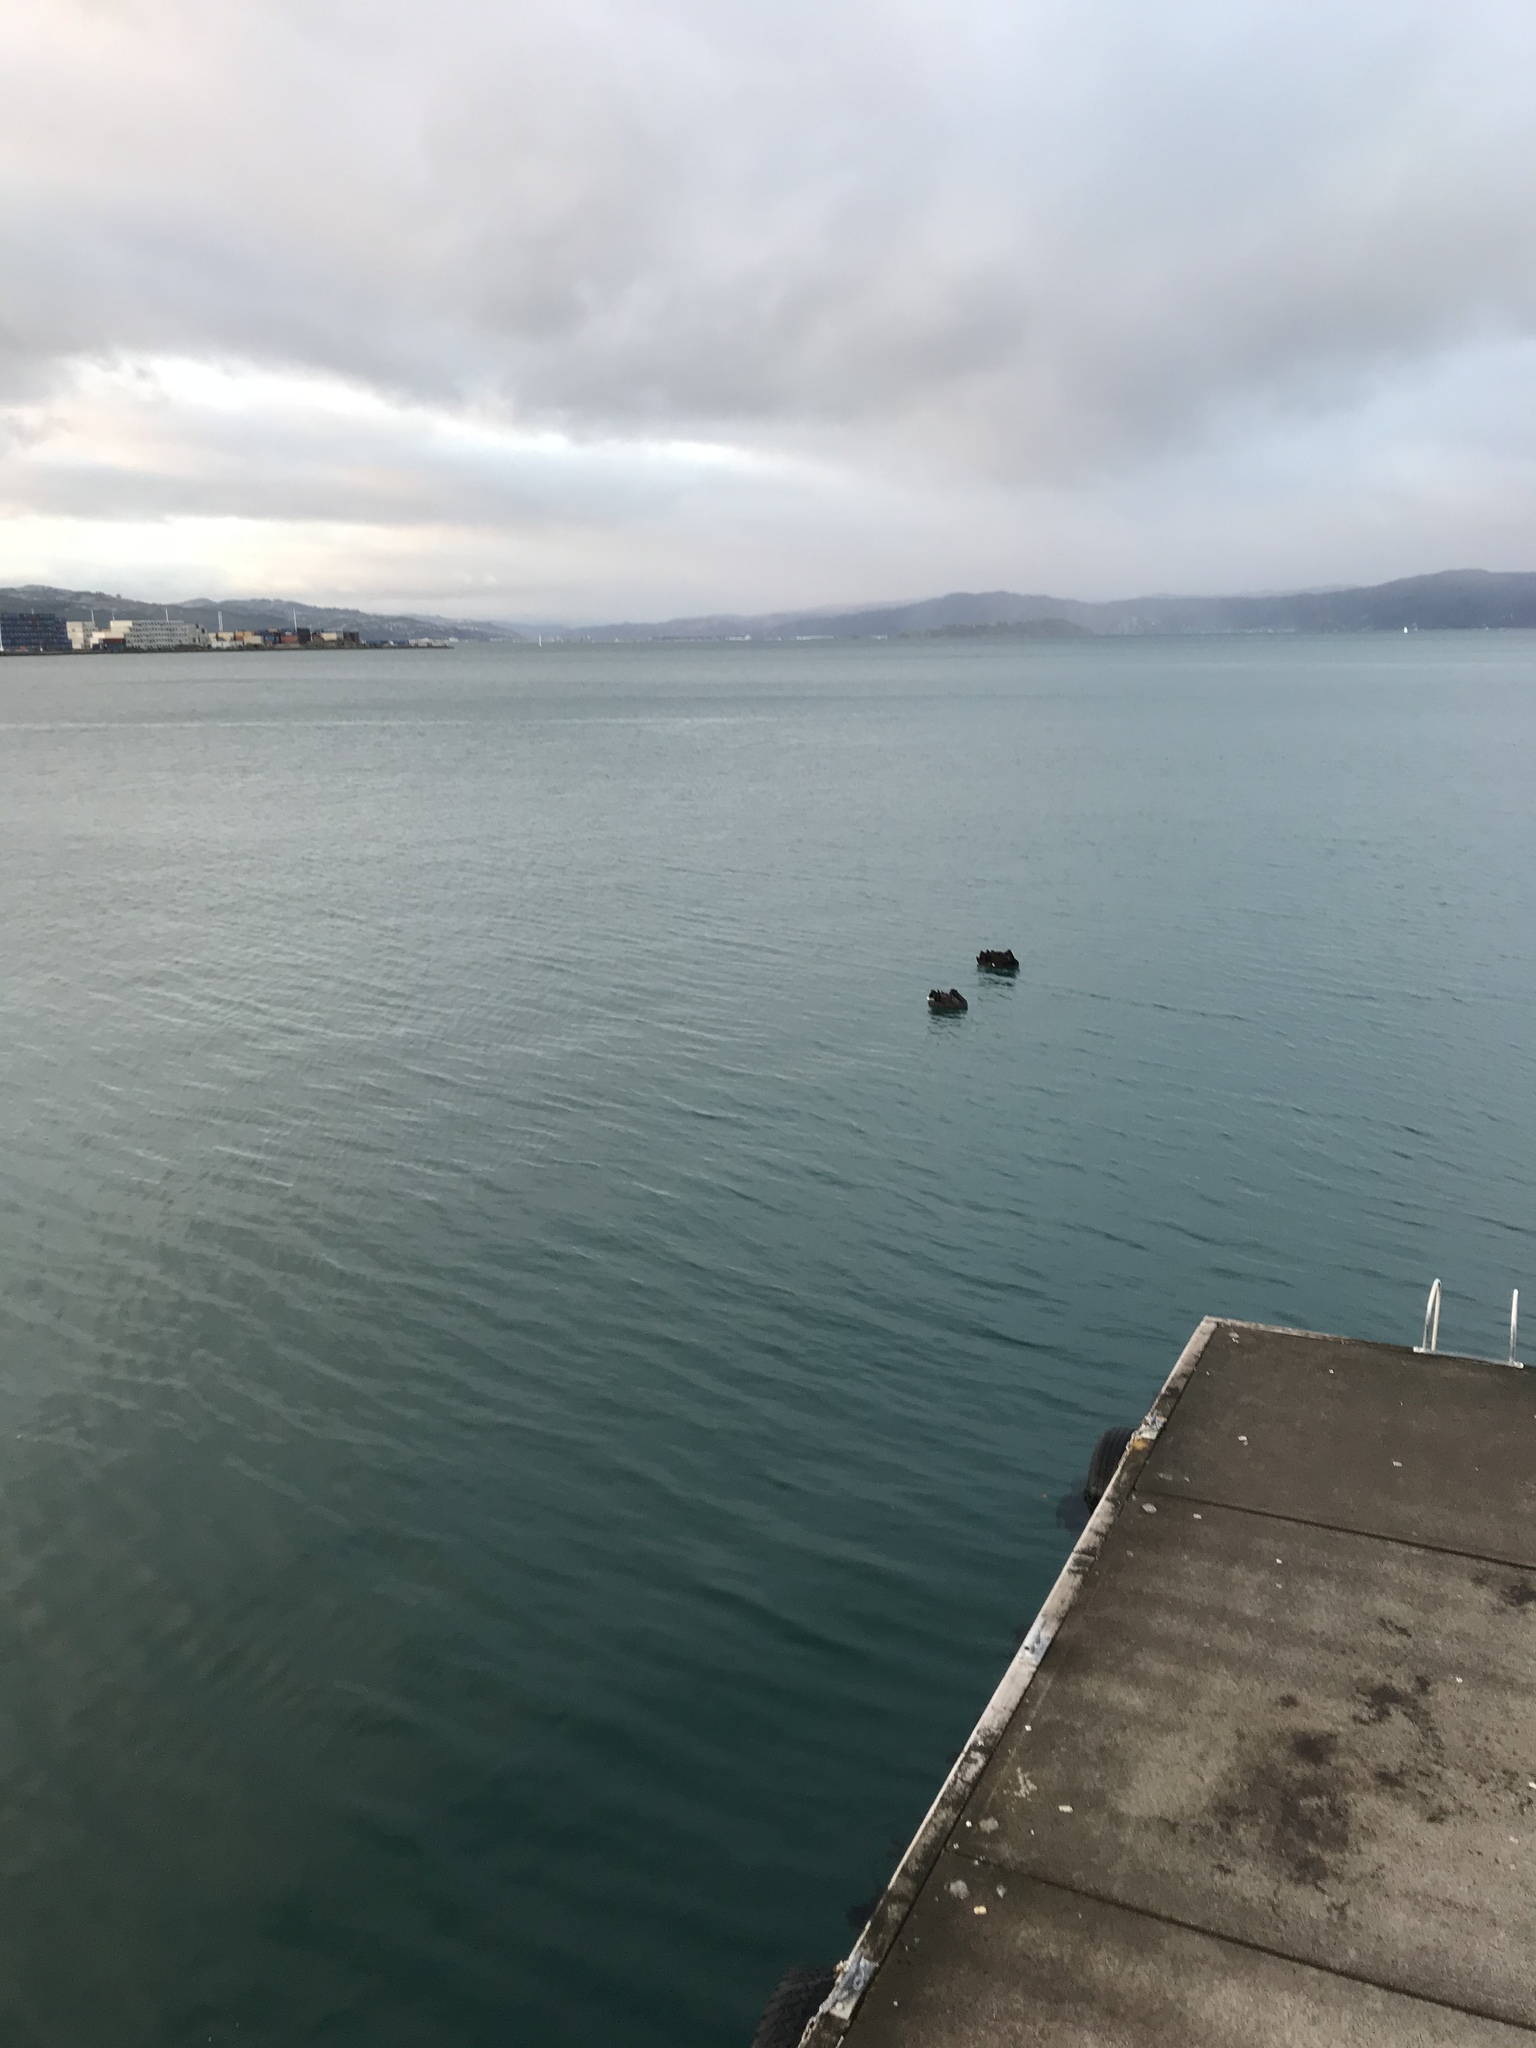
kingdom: Animalia
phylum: Chordata
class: Aves
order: Anseriformes
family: Anatidae
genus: Cygnus
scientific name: Cygnus atratus
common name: Black swan
